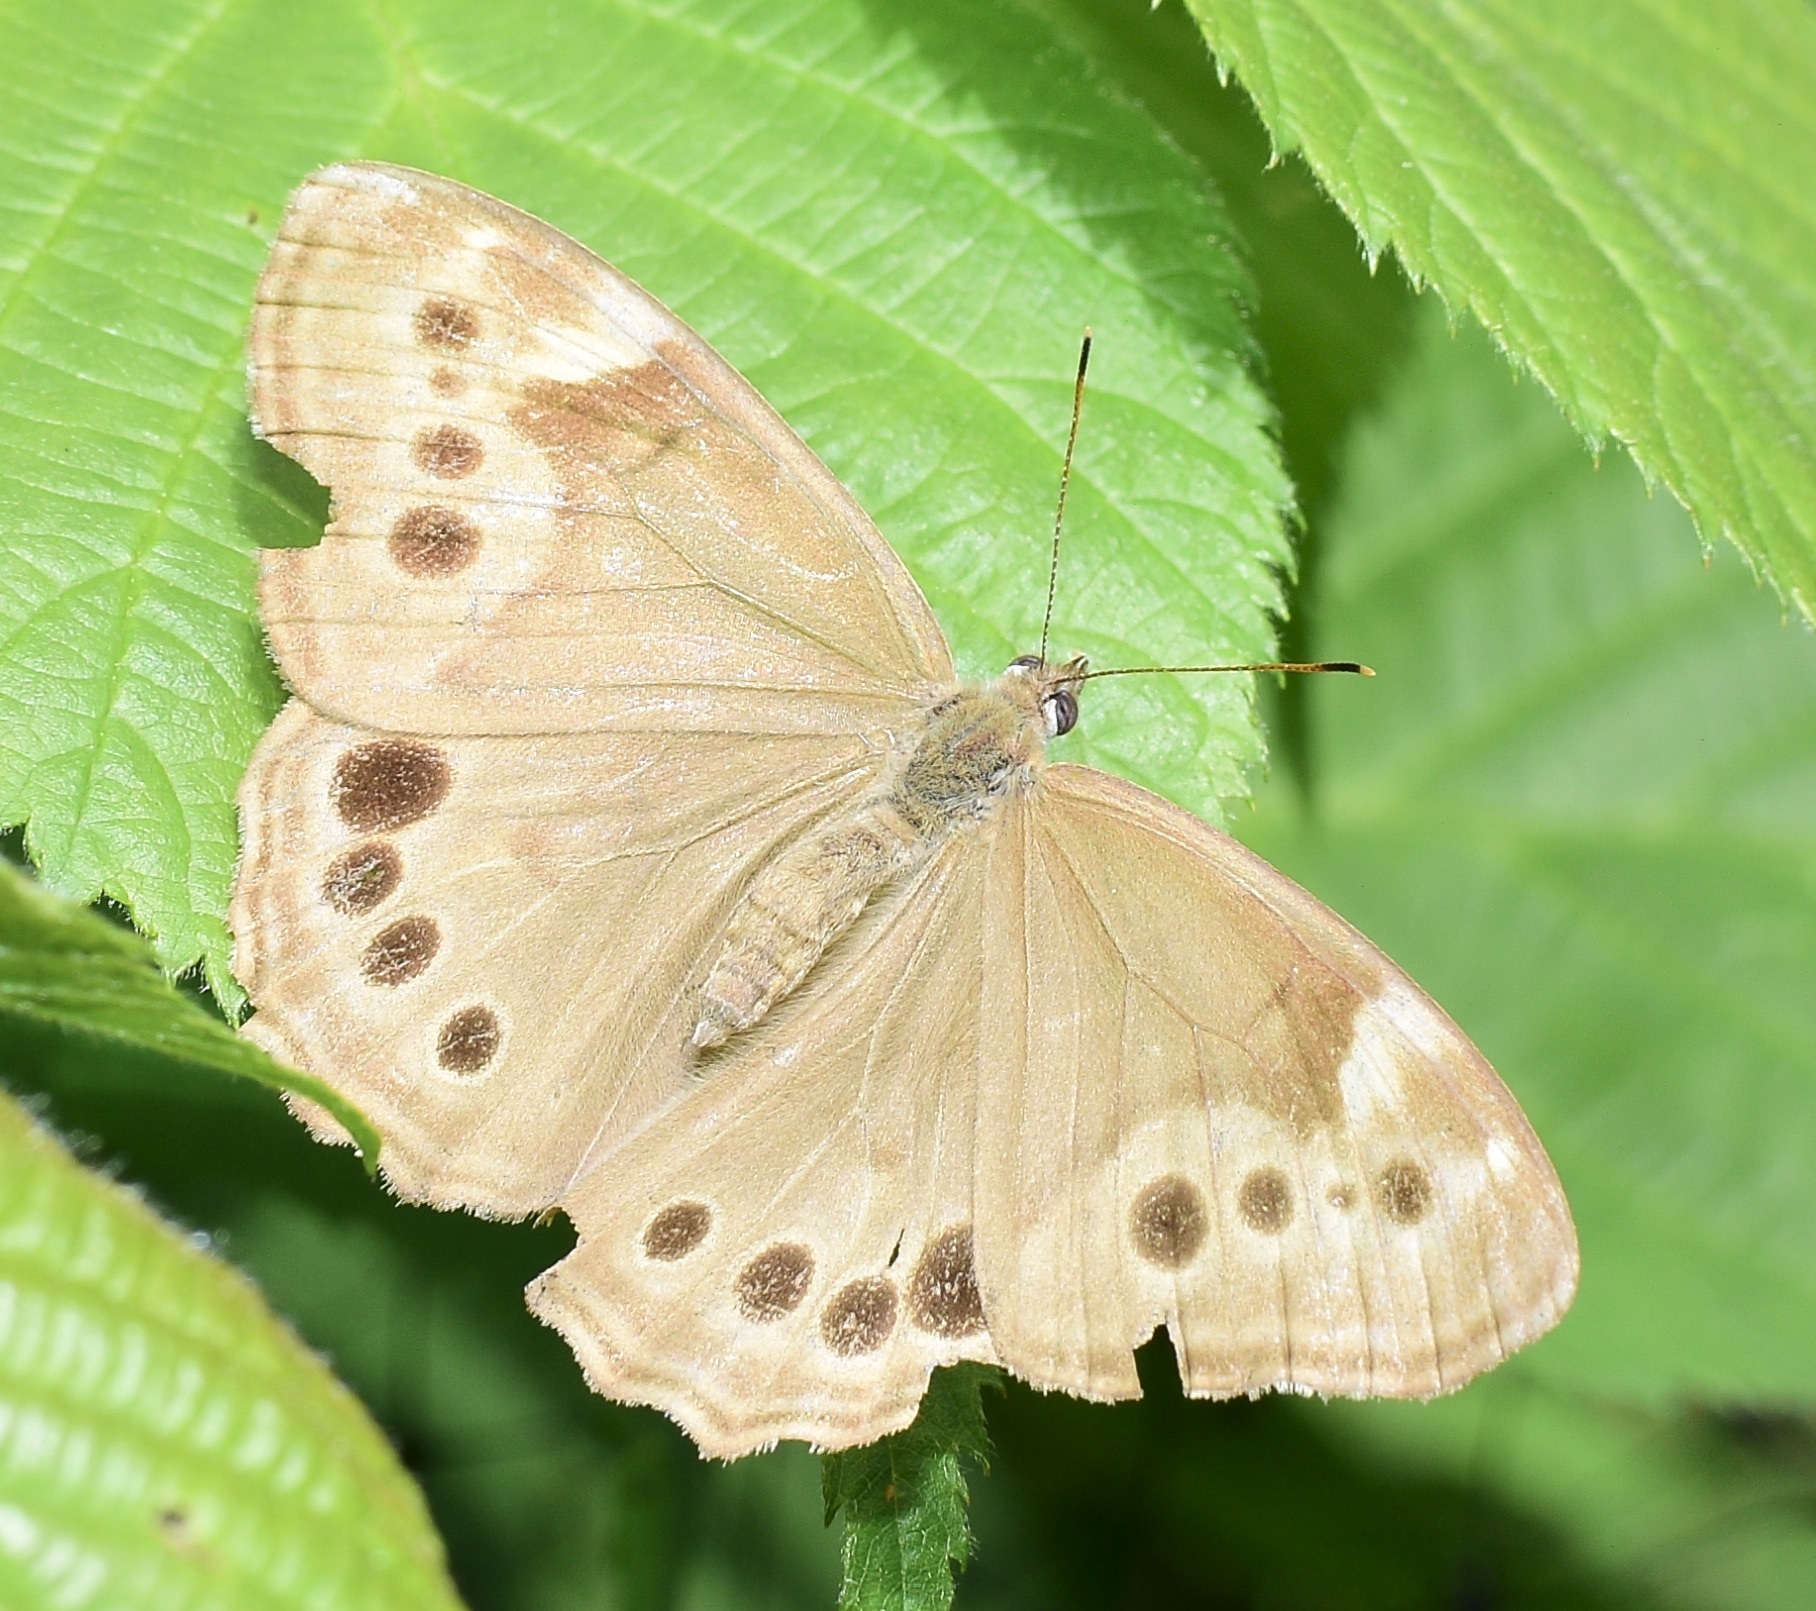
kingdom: Animalia
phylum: Arthropoda
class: Insecta
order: Lepidoptera
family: Nymphalidae
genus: Lethe
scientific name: Lethe anthedon
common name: Northern pearly-eye
